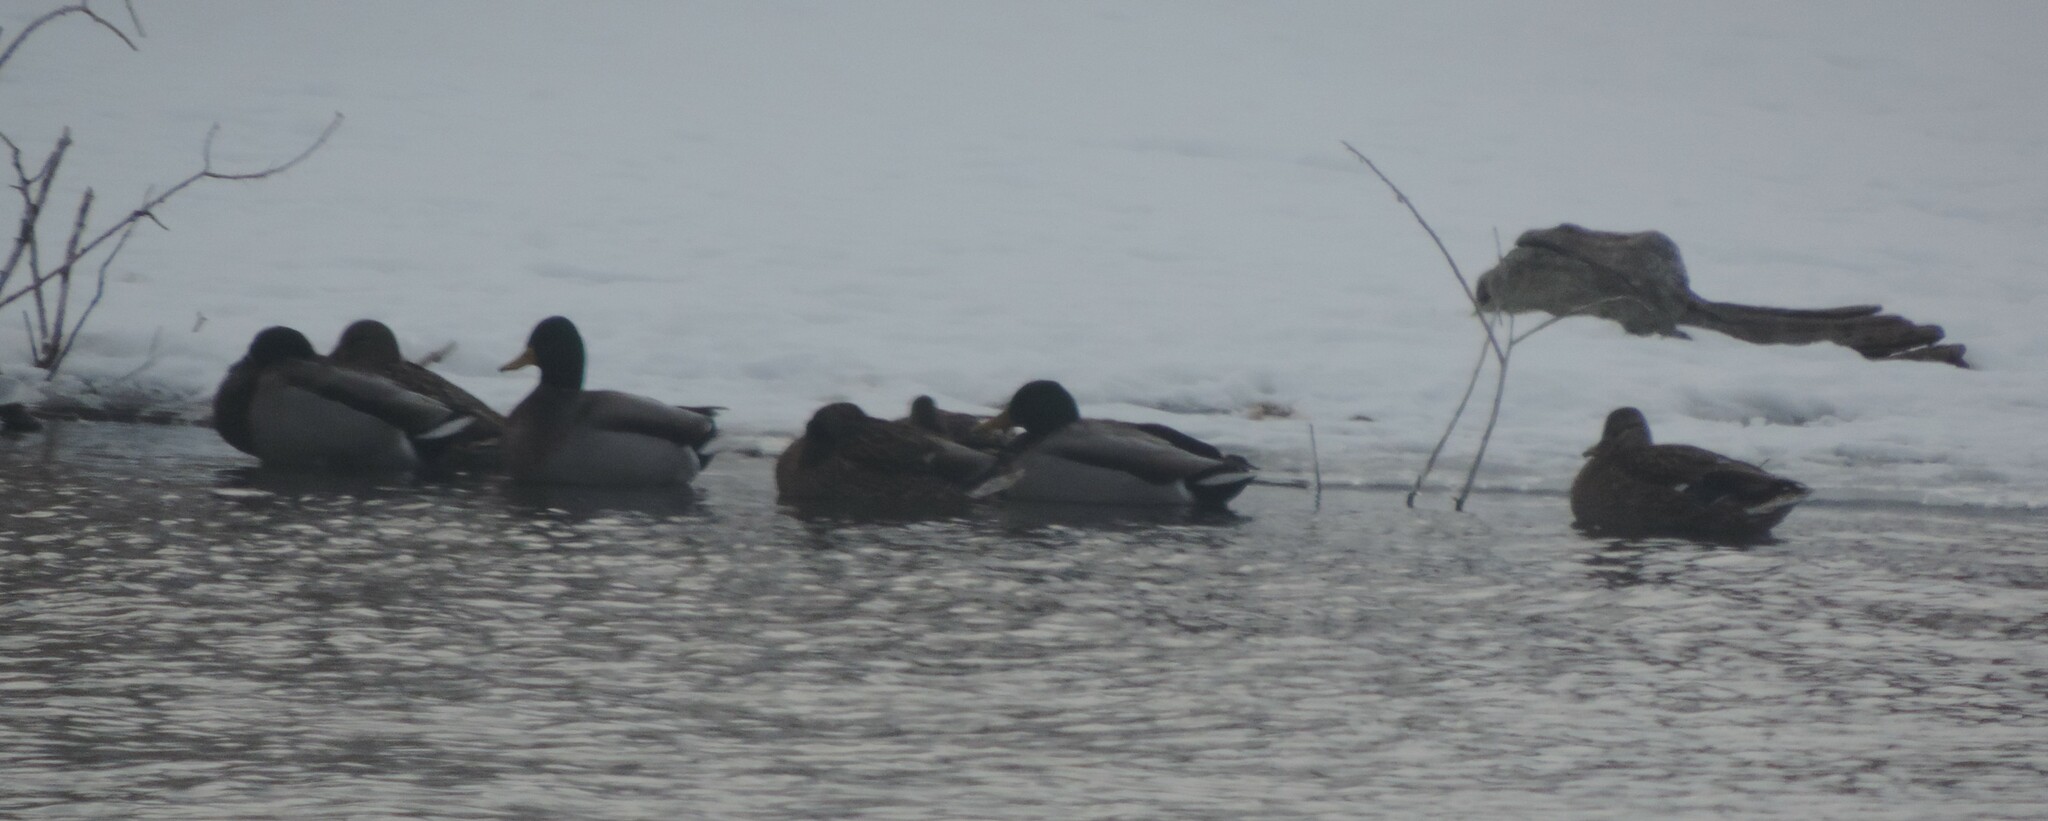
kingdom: Animalia
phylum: Chordata
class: Aves
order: Anseriformes
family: Anatidae
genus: Anas
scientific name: Anas platyrhynchos
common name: Mallard
